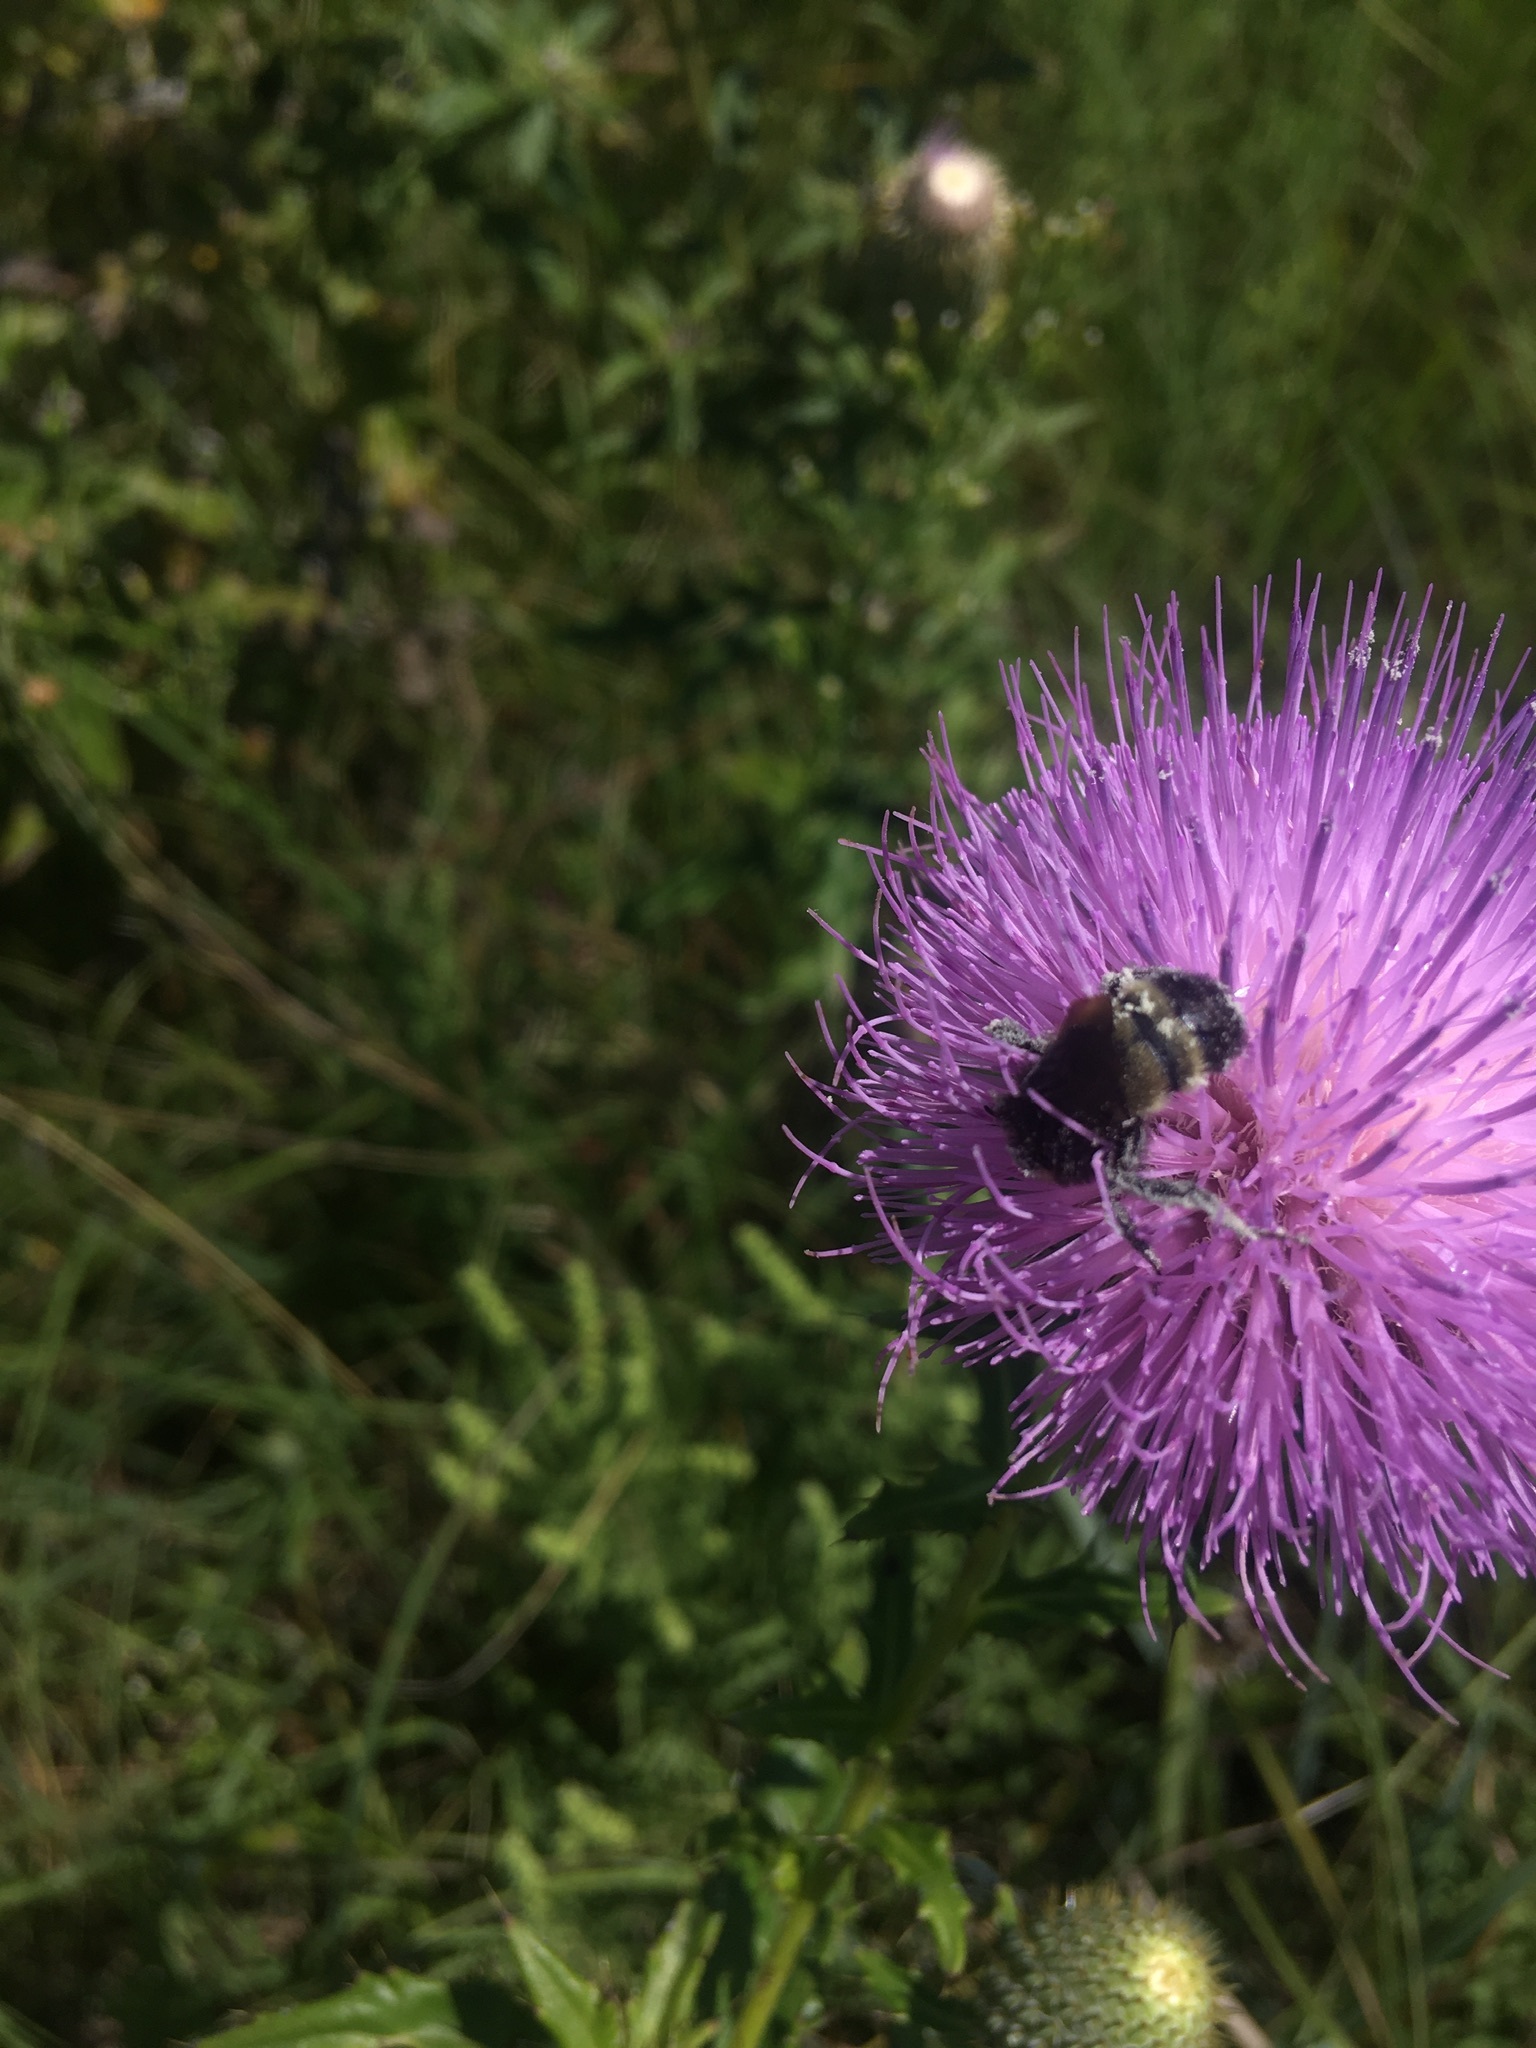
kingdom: Animalia
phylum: Arthropoda
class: Insecta
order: Hymenoptera
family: Apidae
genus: Bombus
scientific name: Bombus pensylvanicus
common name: Bumble bee
